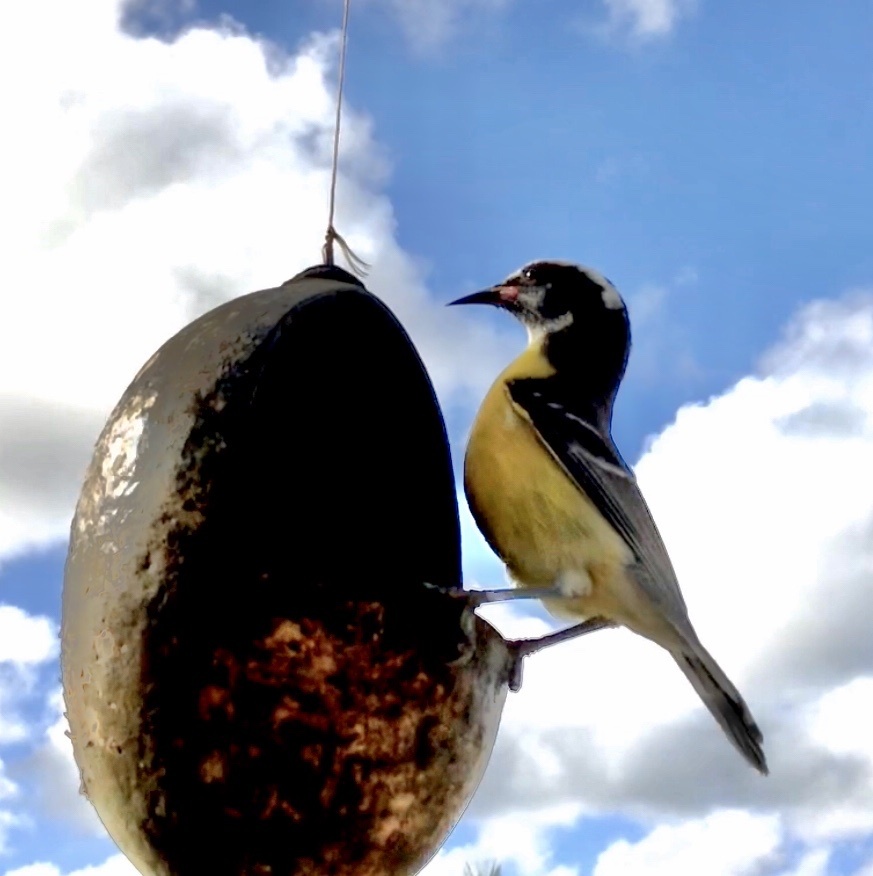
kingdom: Animalia
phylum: Chordata
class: Aves
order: Passeriformes
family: Thraupidae
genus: Coereba
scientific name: Coereba flaveola
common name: Bananaquit
